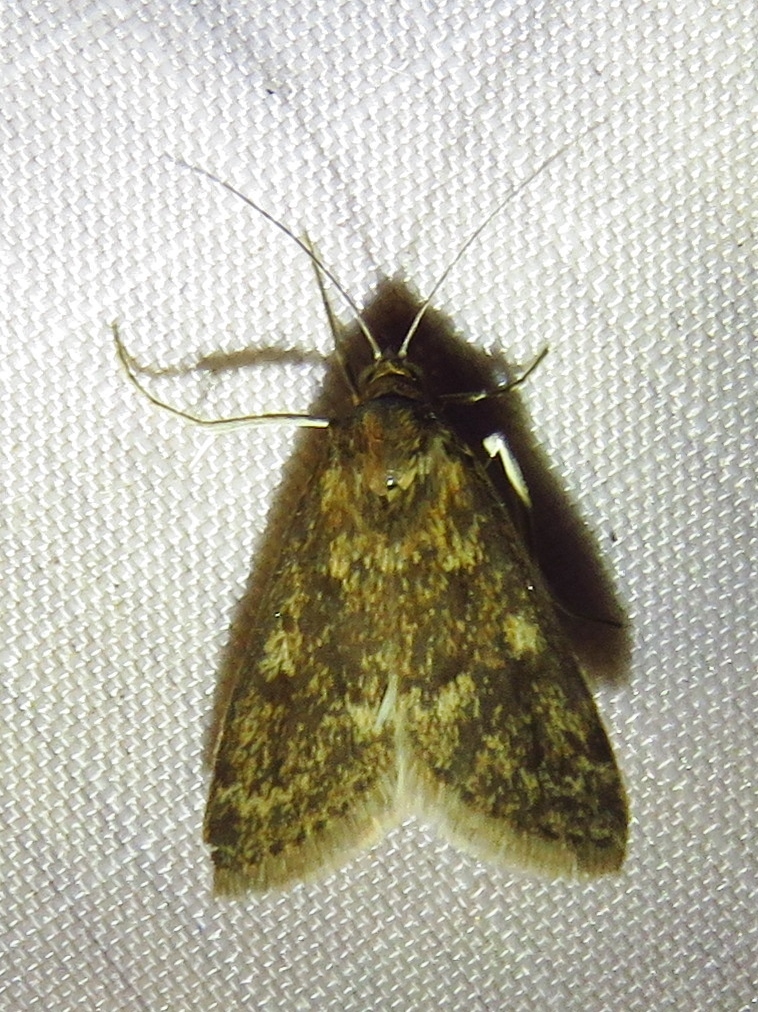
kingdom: Animalia
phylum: Arthropoda
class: Insecta
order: Lepidoptera
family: Crambidae
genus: Achyra
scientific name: Achyra rantalis
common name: Garden webworm
